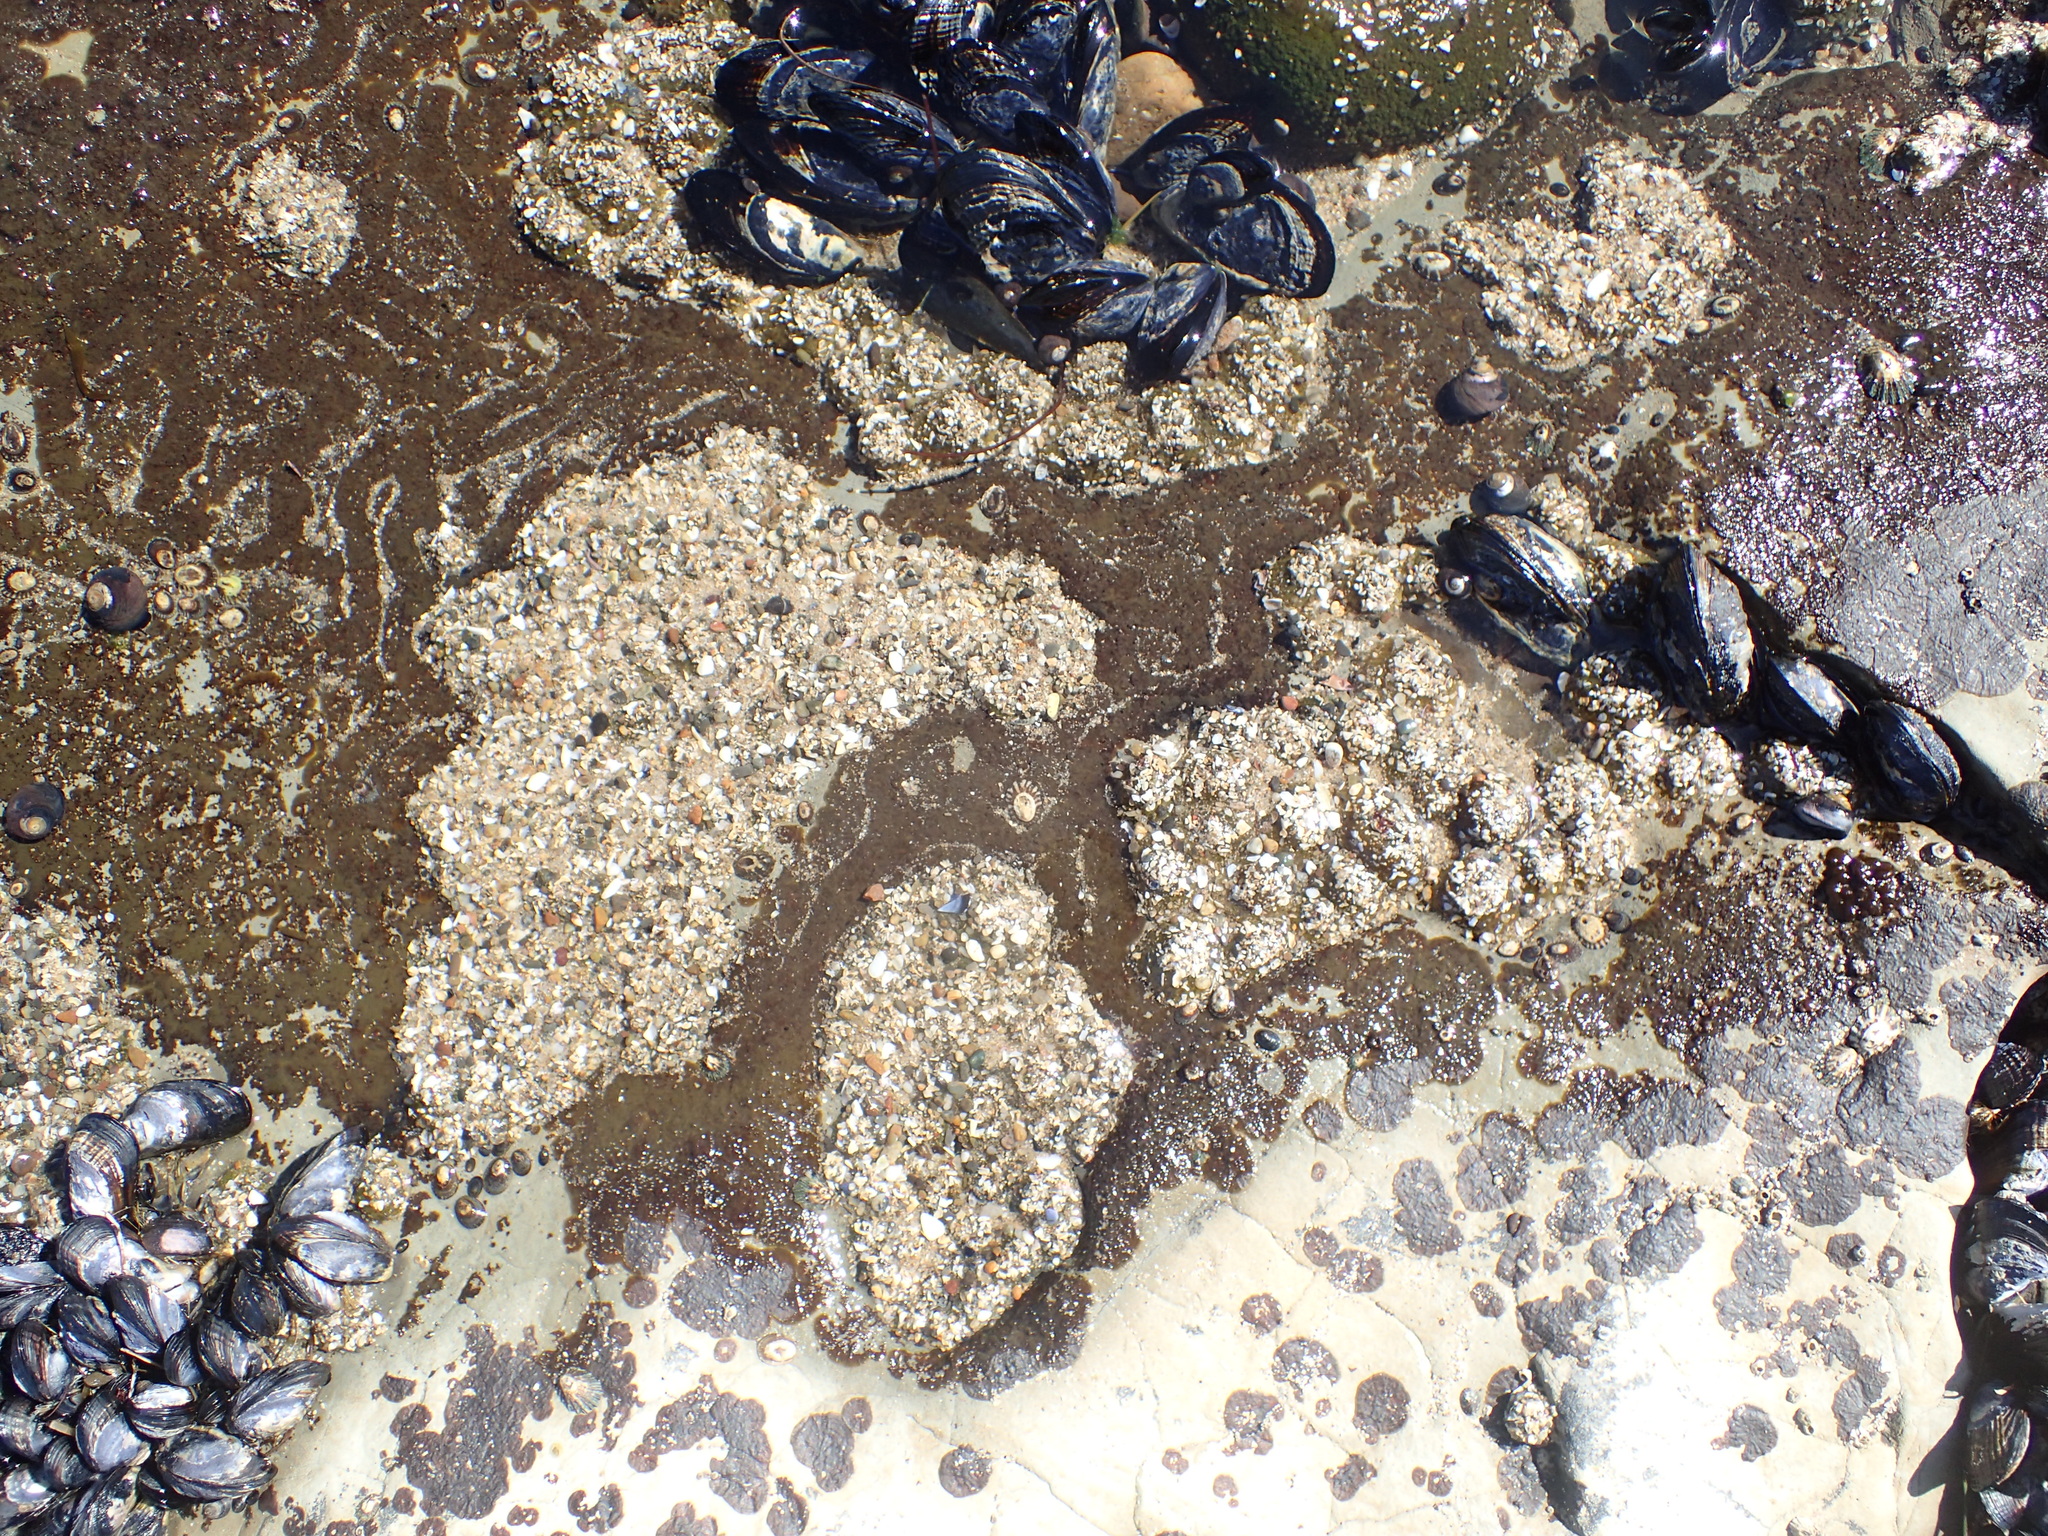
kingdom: Animalia
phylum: Cnidaria
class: Anthozoa
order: Actiniaria
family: Actiniidae
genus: Anthopleura
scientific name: Anthopleura elegantissima
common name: Clonal anemone
